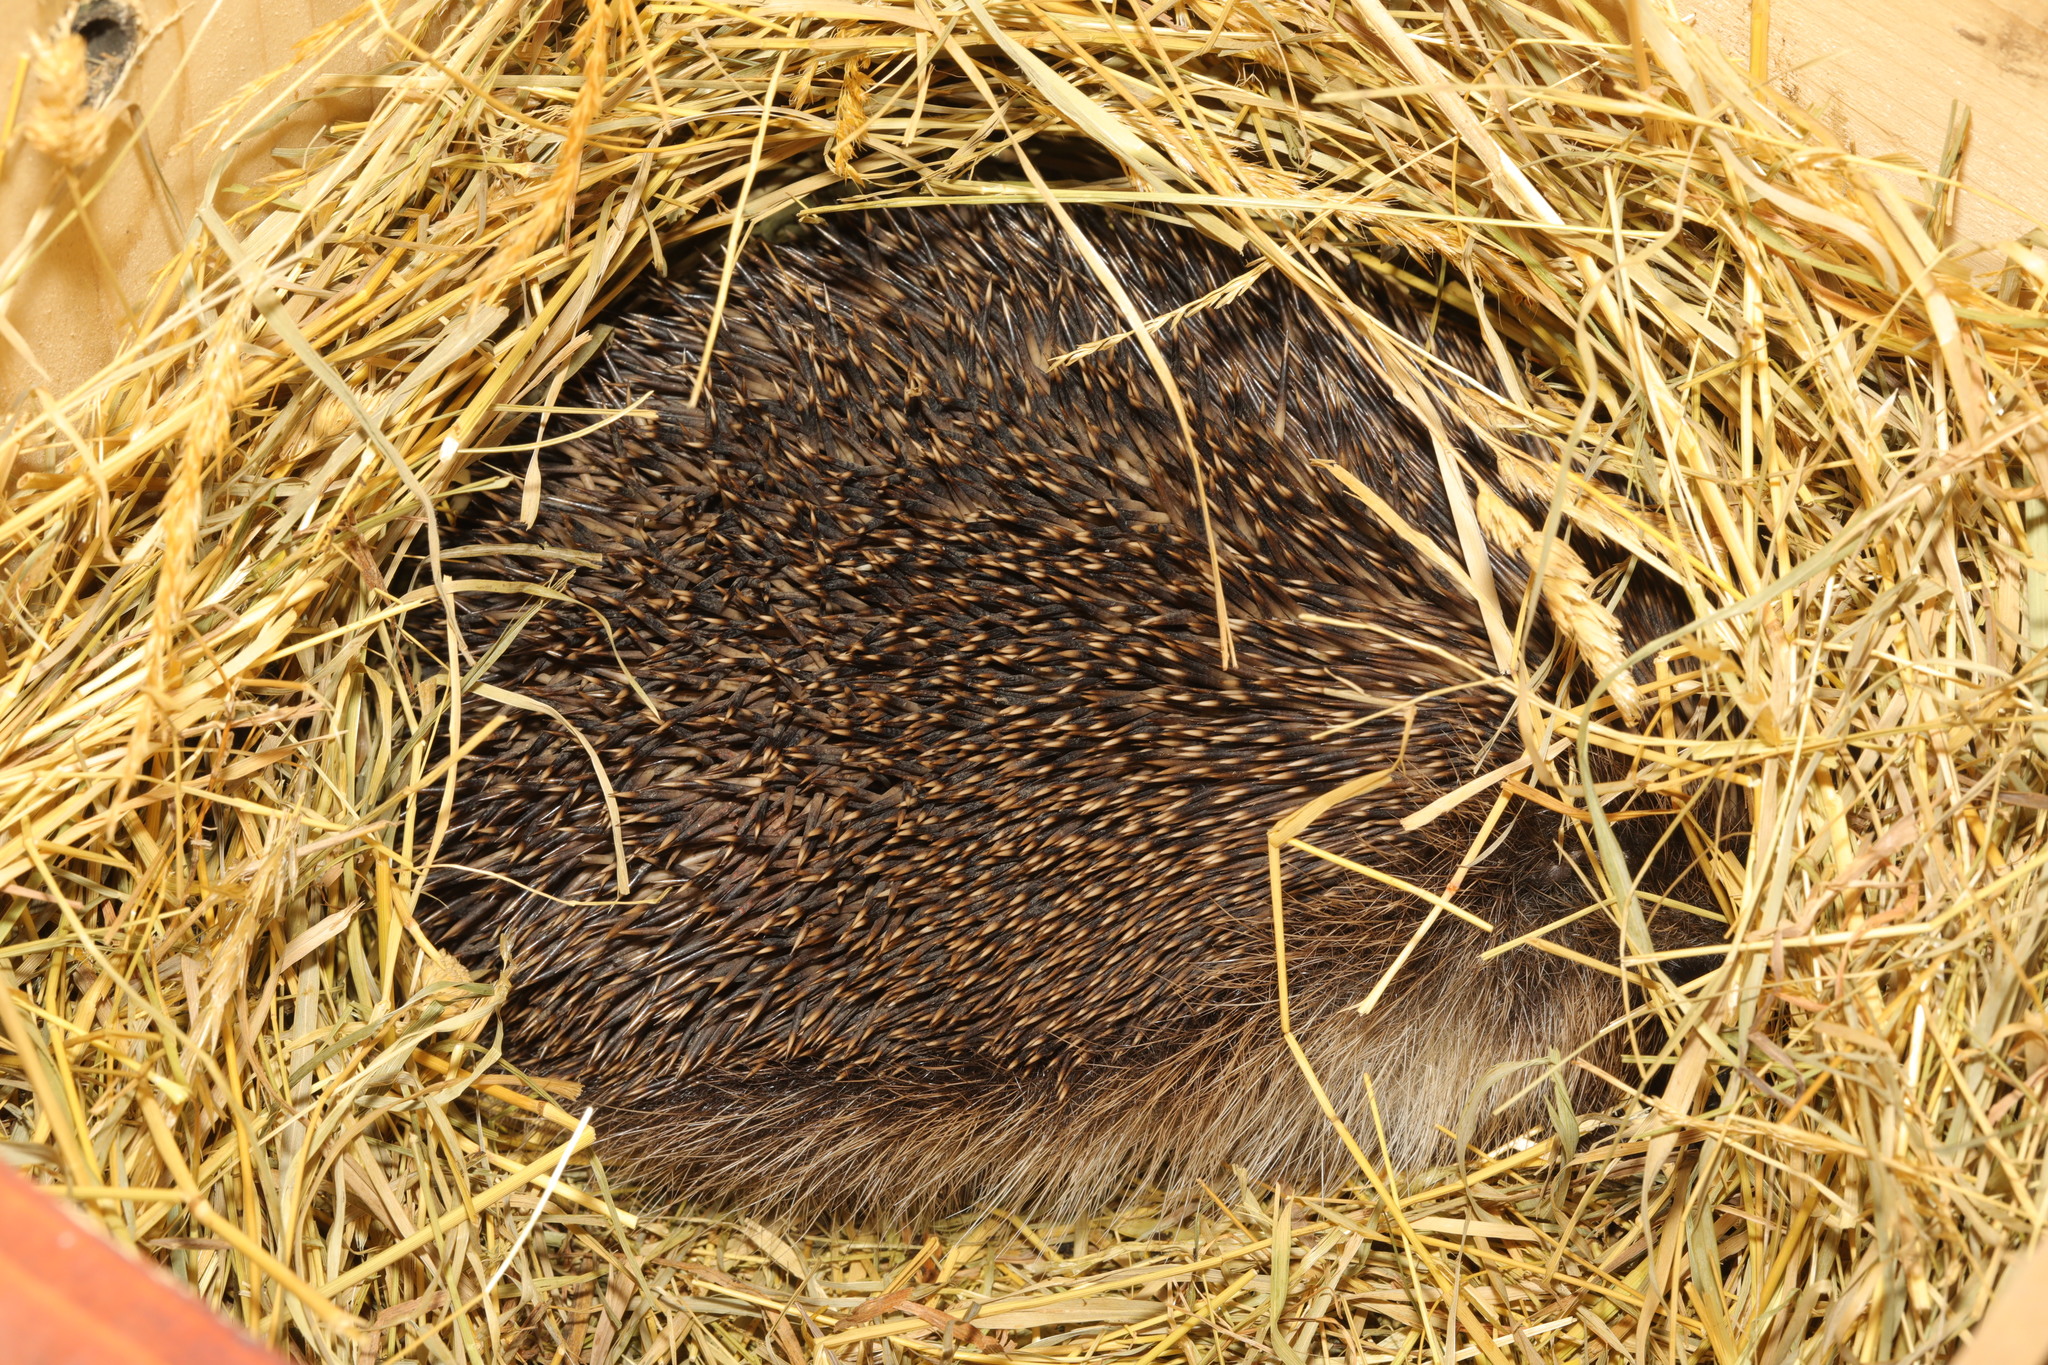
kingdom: Animalia
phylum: Chordata
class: Mammalia
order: Erinaceomorpha
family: Erinaceidae
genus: Erinaceus
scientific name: Erinaceus europaeus
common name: West european hedgehog
